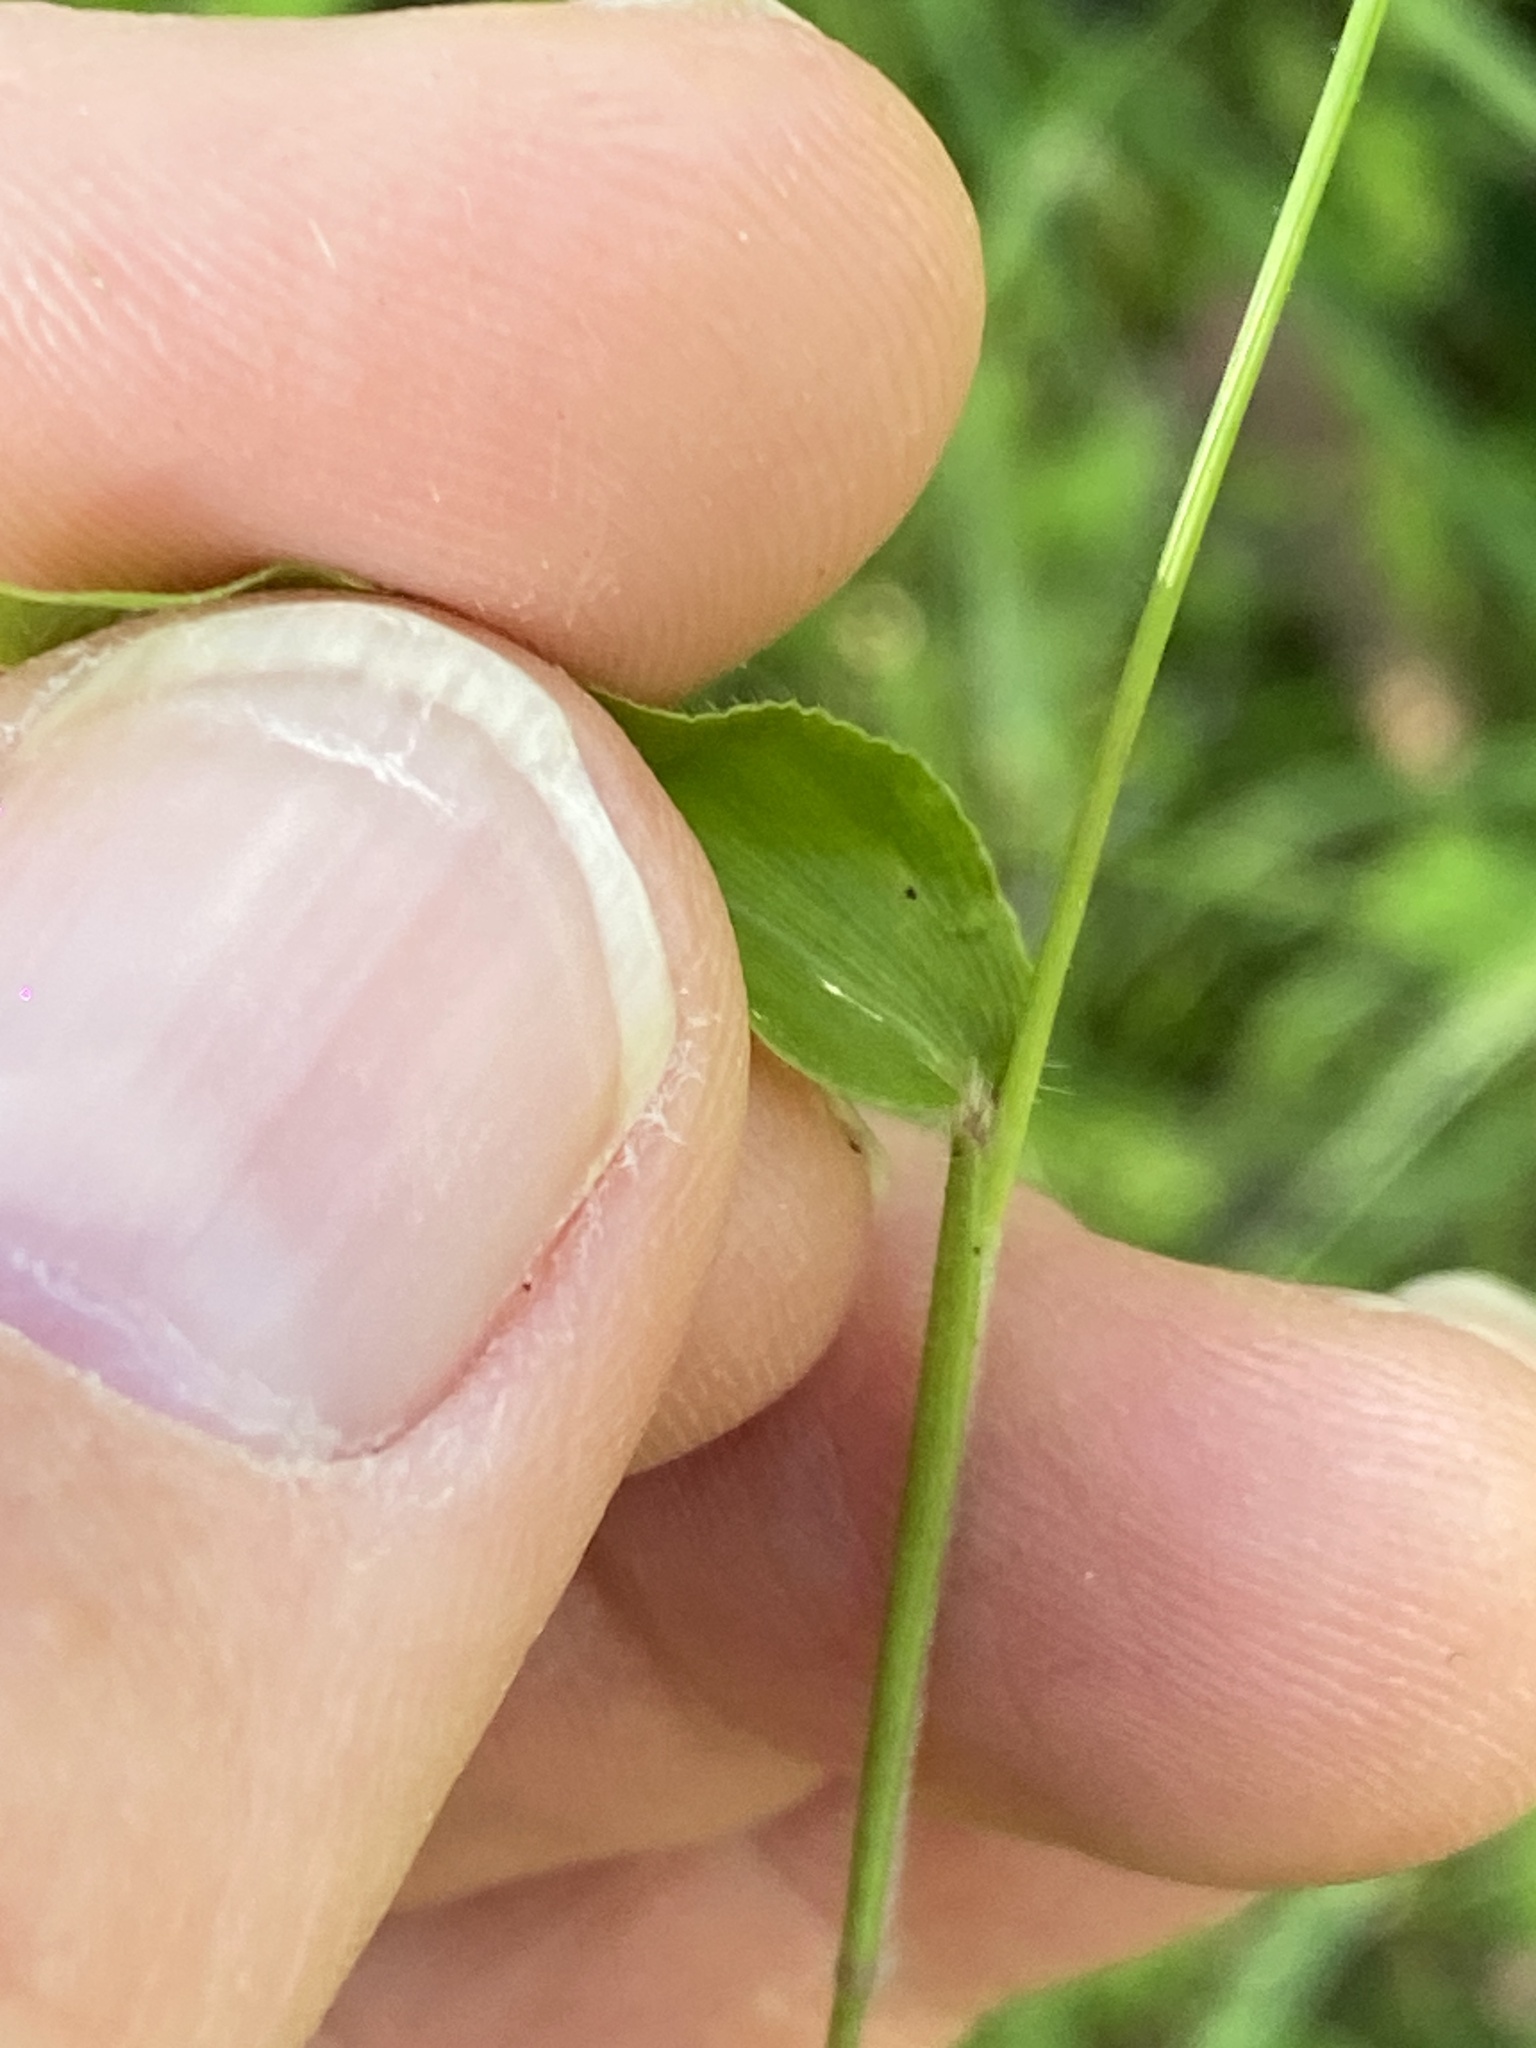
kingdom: Plantae
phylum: Tracheophyta
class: Liliopsida
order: Poales
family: Poaceae
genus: Oplismenus
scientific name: Oplismenus hirtellus
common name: Basketgrass
